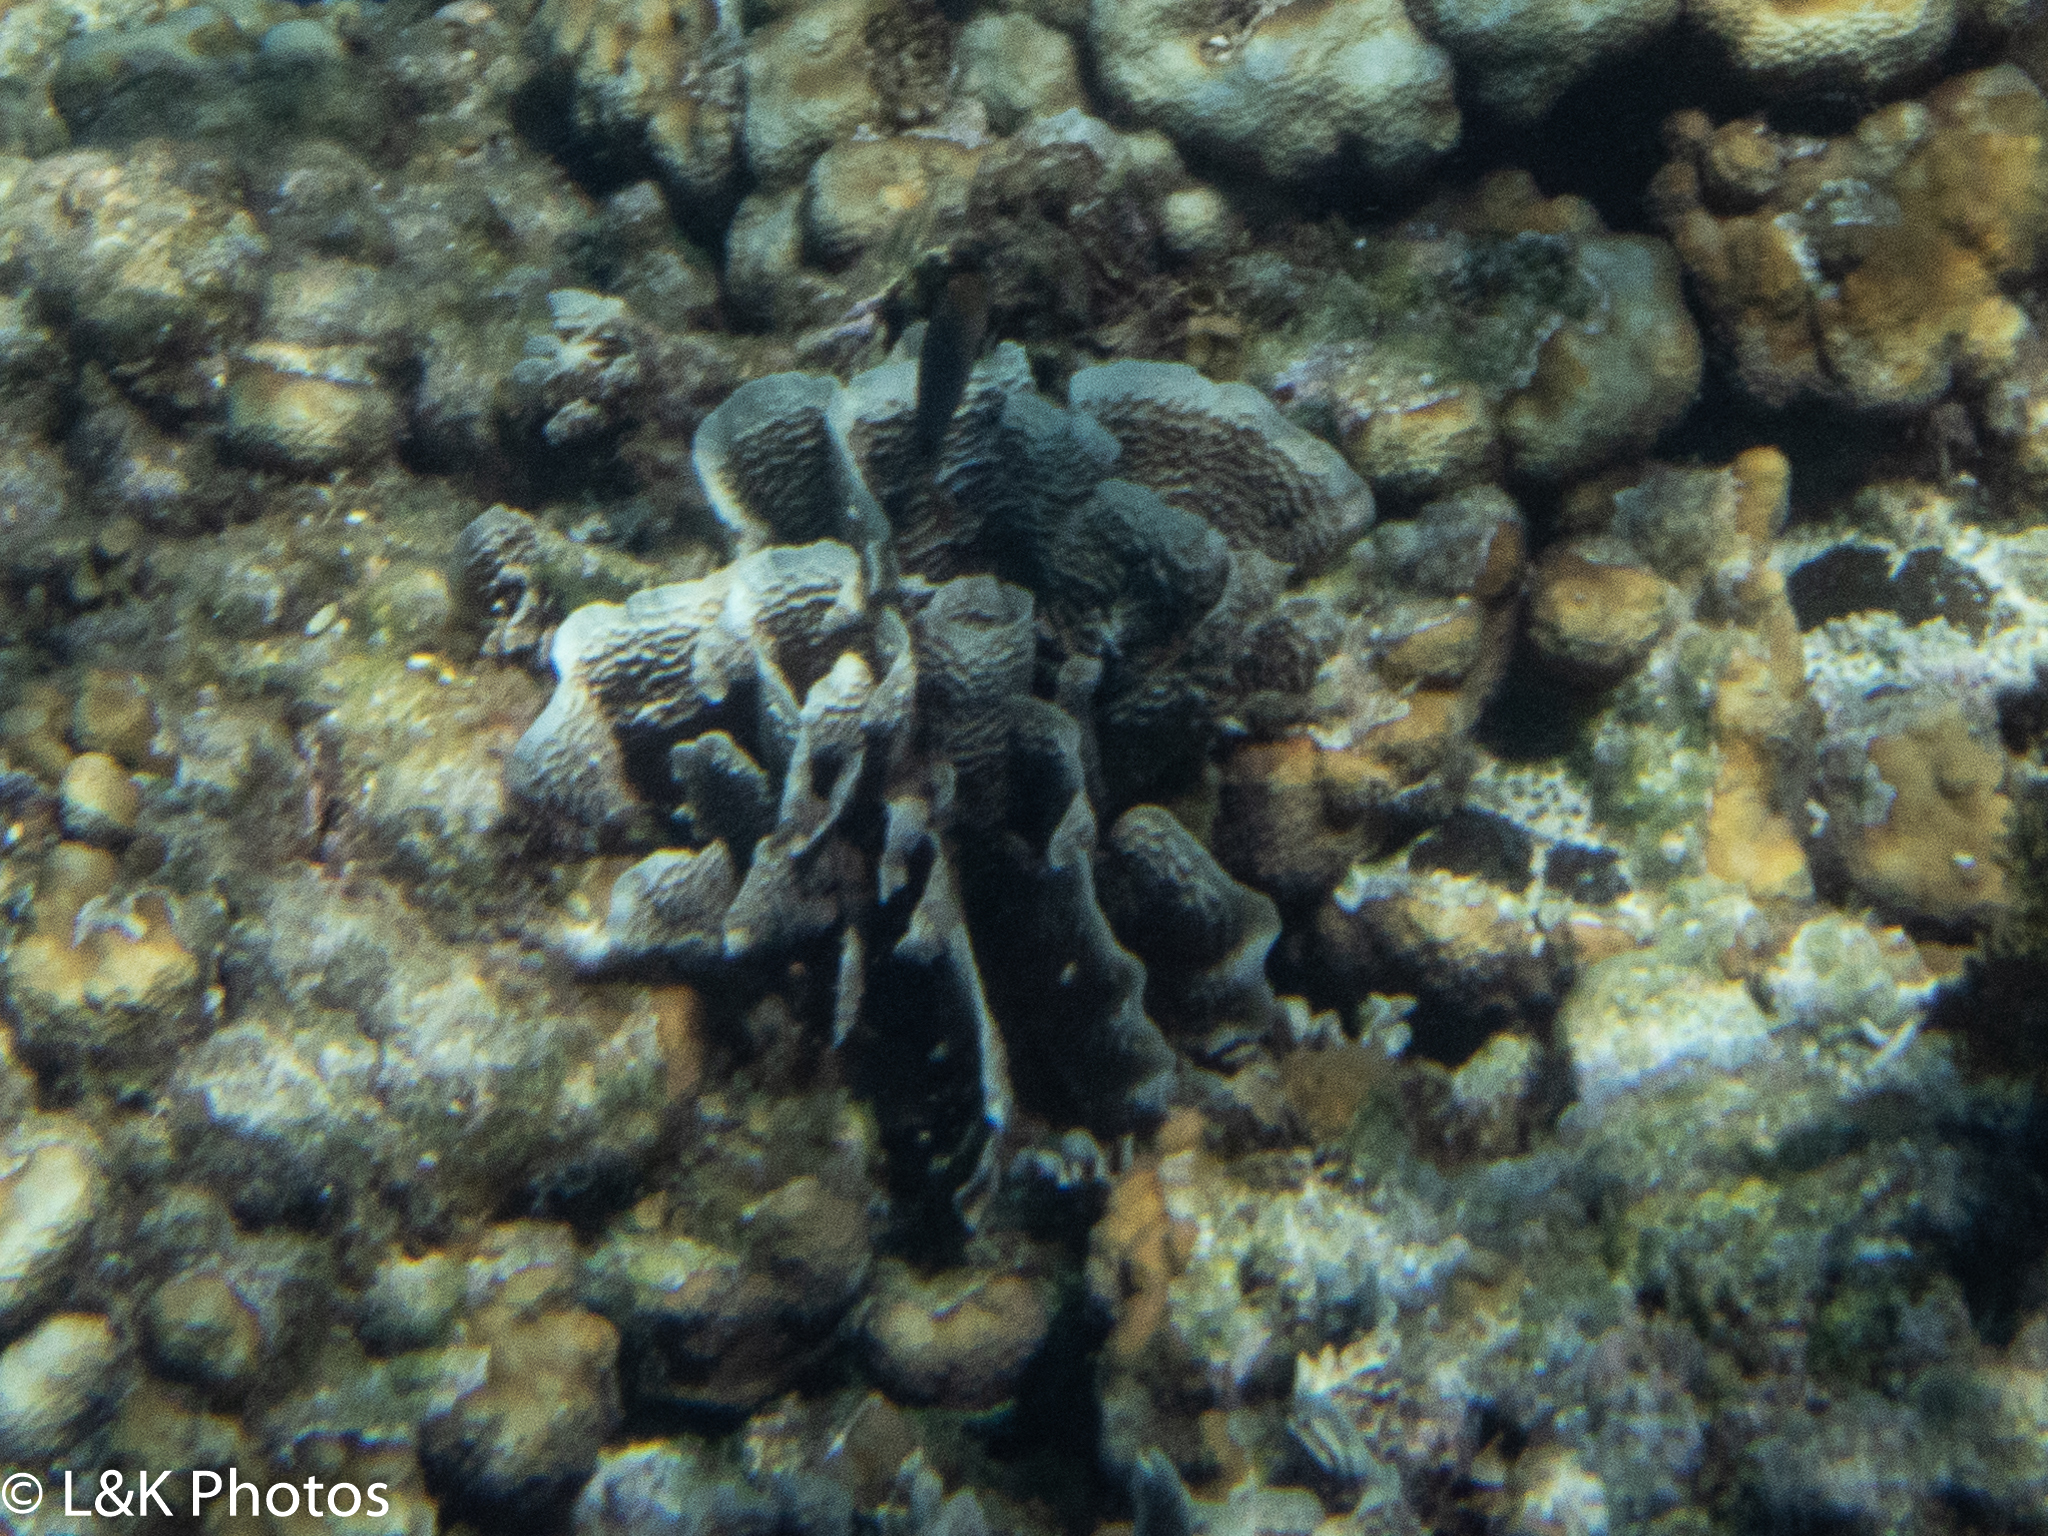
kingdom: Animalia
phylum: Cnidaria
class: Anthozoa
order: Scleractinia
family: Agariciidae
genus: Agaricia
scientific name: Agaricia tenuifolia
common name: Thin leaf lettuce coral
